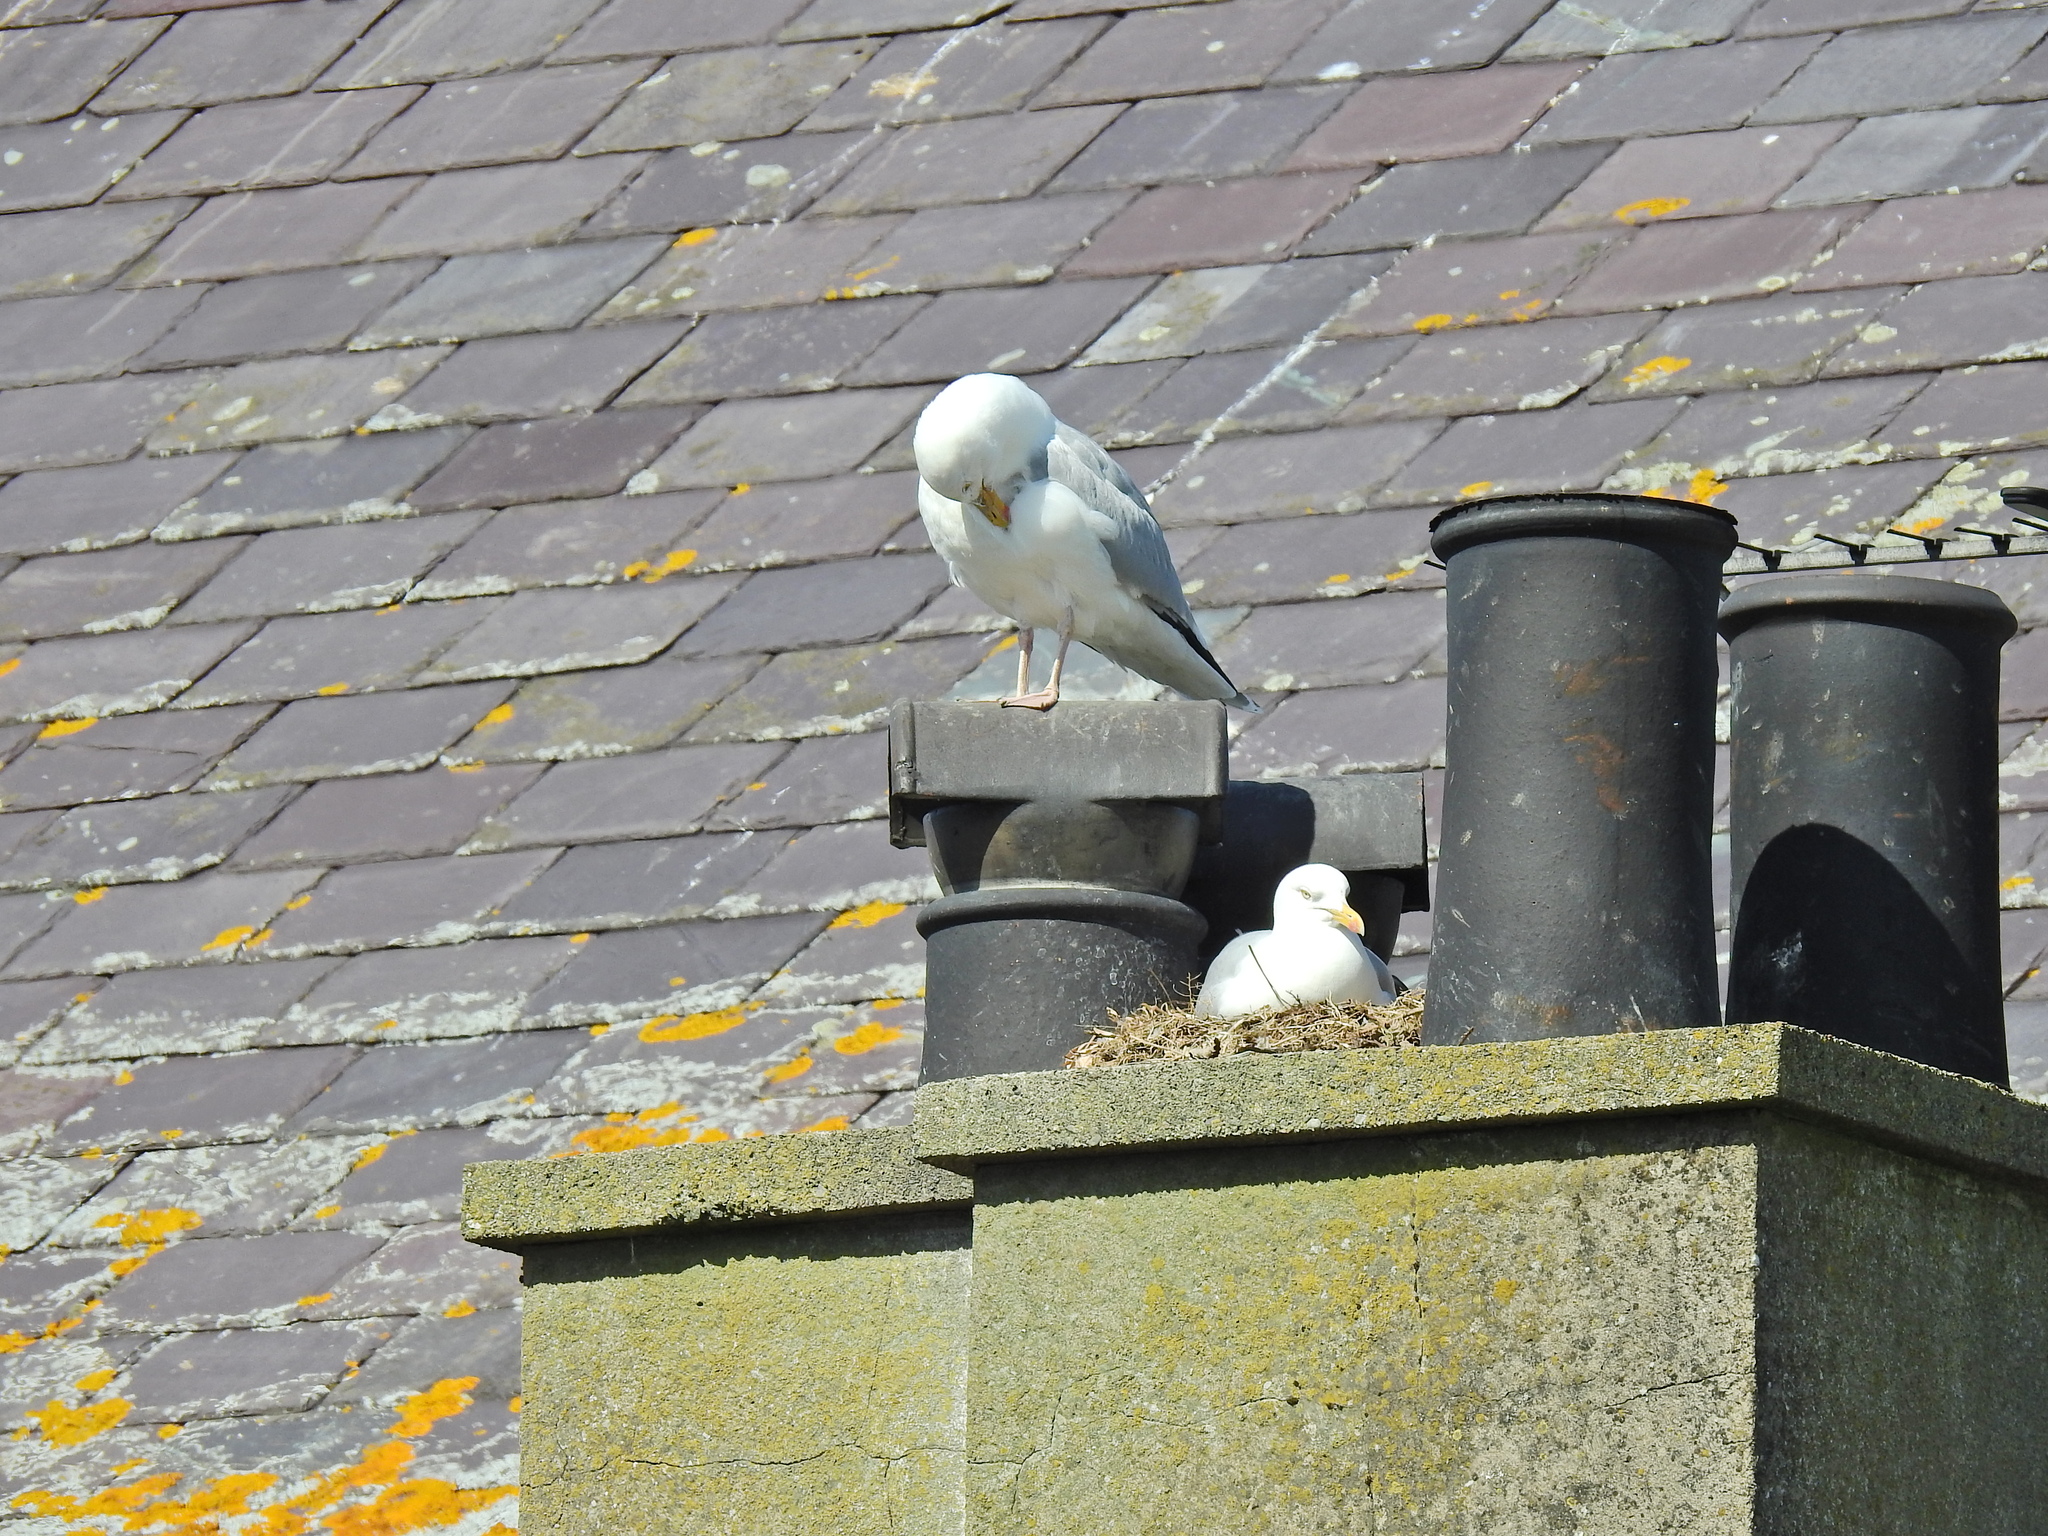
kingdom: Animalia
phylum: Chordata
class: Aves
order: Charadriiformes
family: Laridae
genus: Larus
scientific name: Larus argentatus
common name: Herring gull
